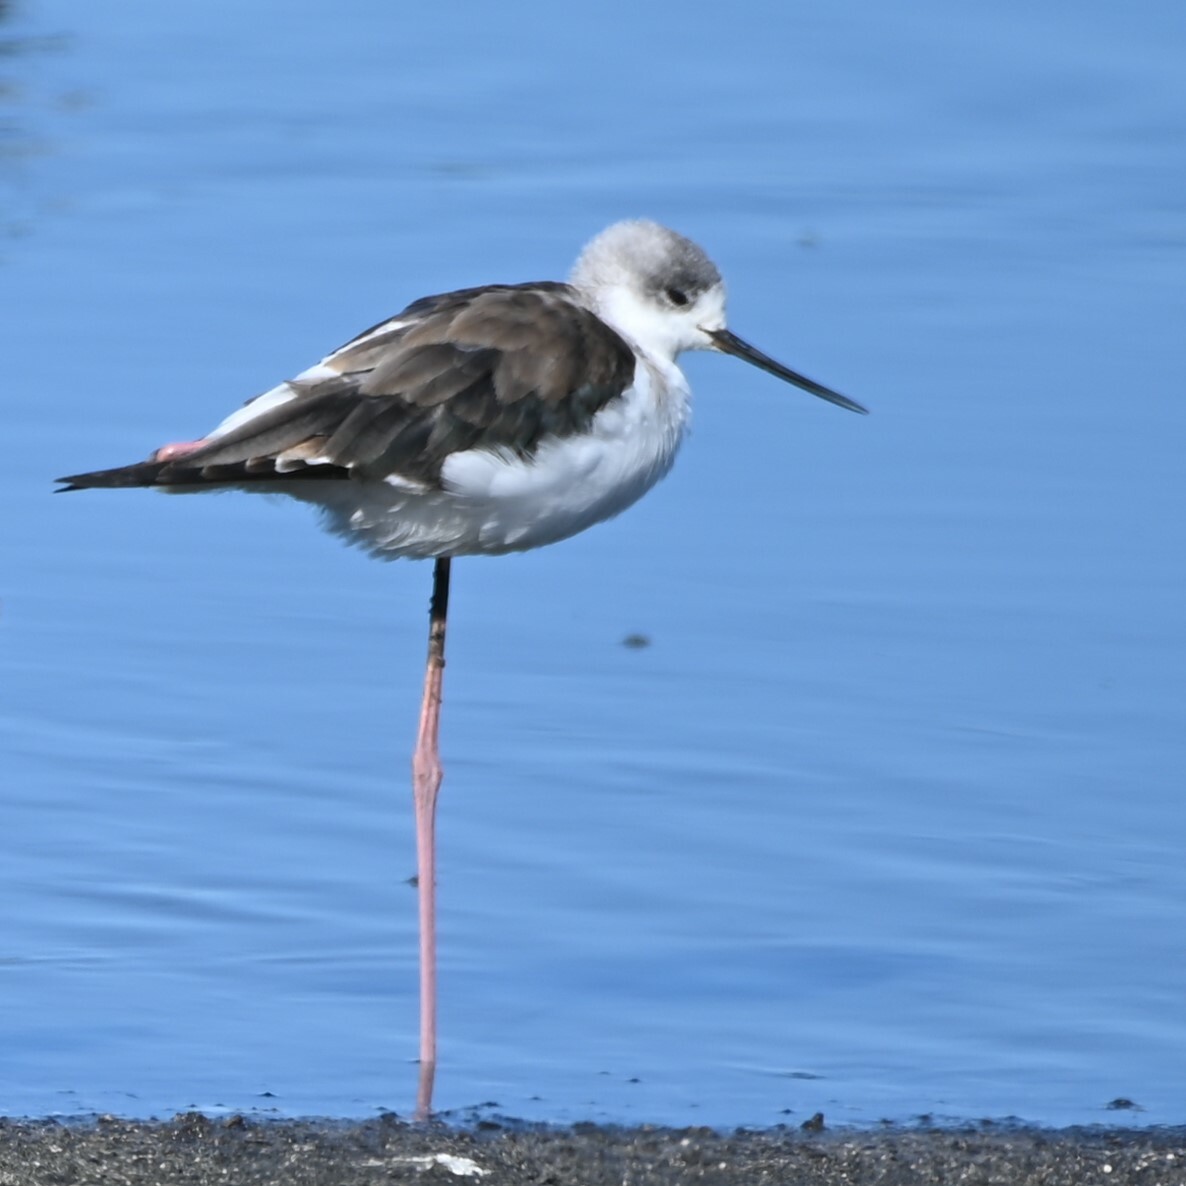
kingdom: Animalia
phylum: Chordata
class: Aves
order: Charadriiformes
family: Recurvirostridae
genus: Himantopus
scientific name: Himantopus himantopus
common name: Black-winged stilt
